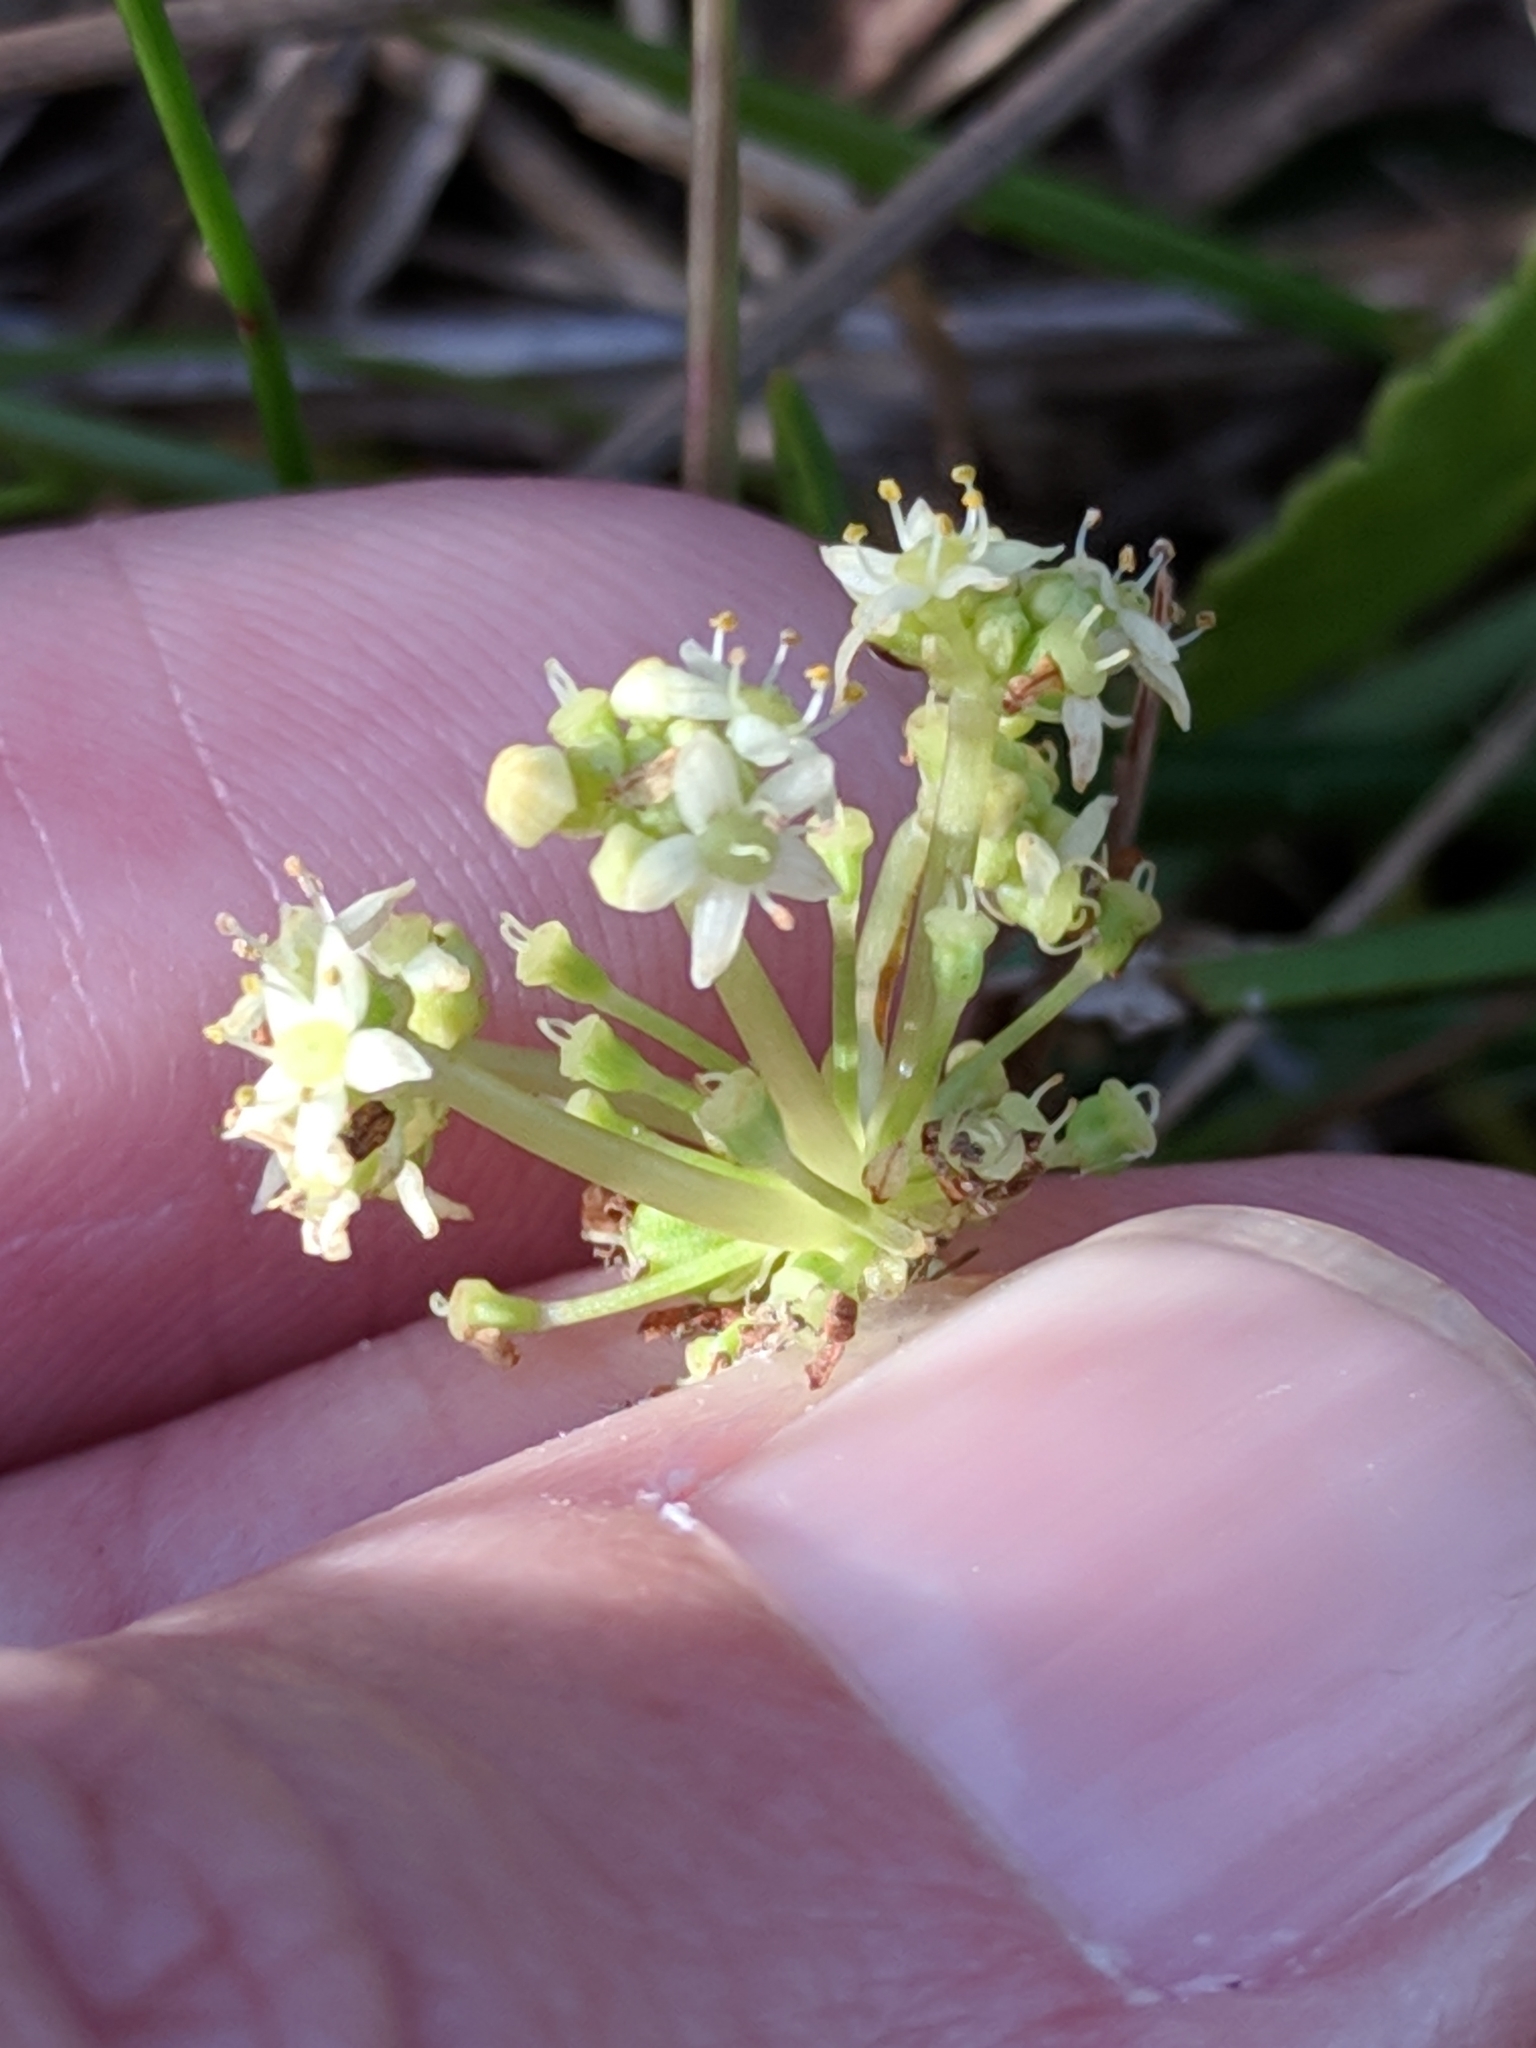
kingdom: Plantae
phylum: Tracheophyta
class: Magnoliopsida
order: Apiales
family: Araliaceae
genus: Hydrocotyle
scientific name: Hydrocotyle bonariensis
